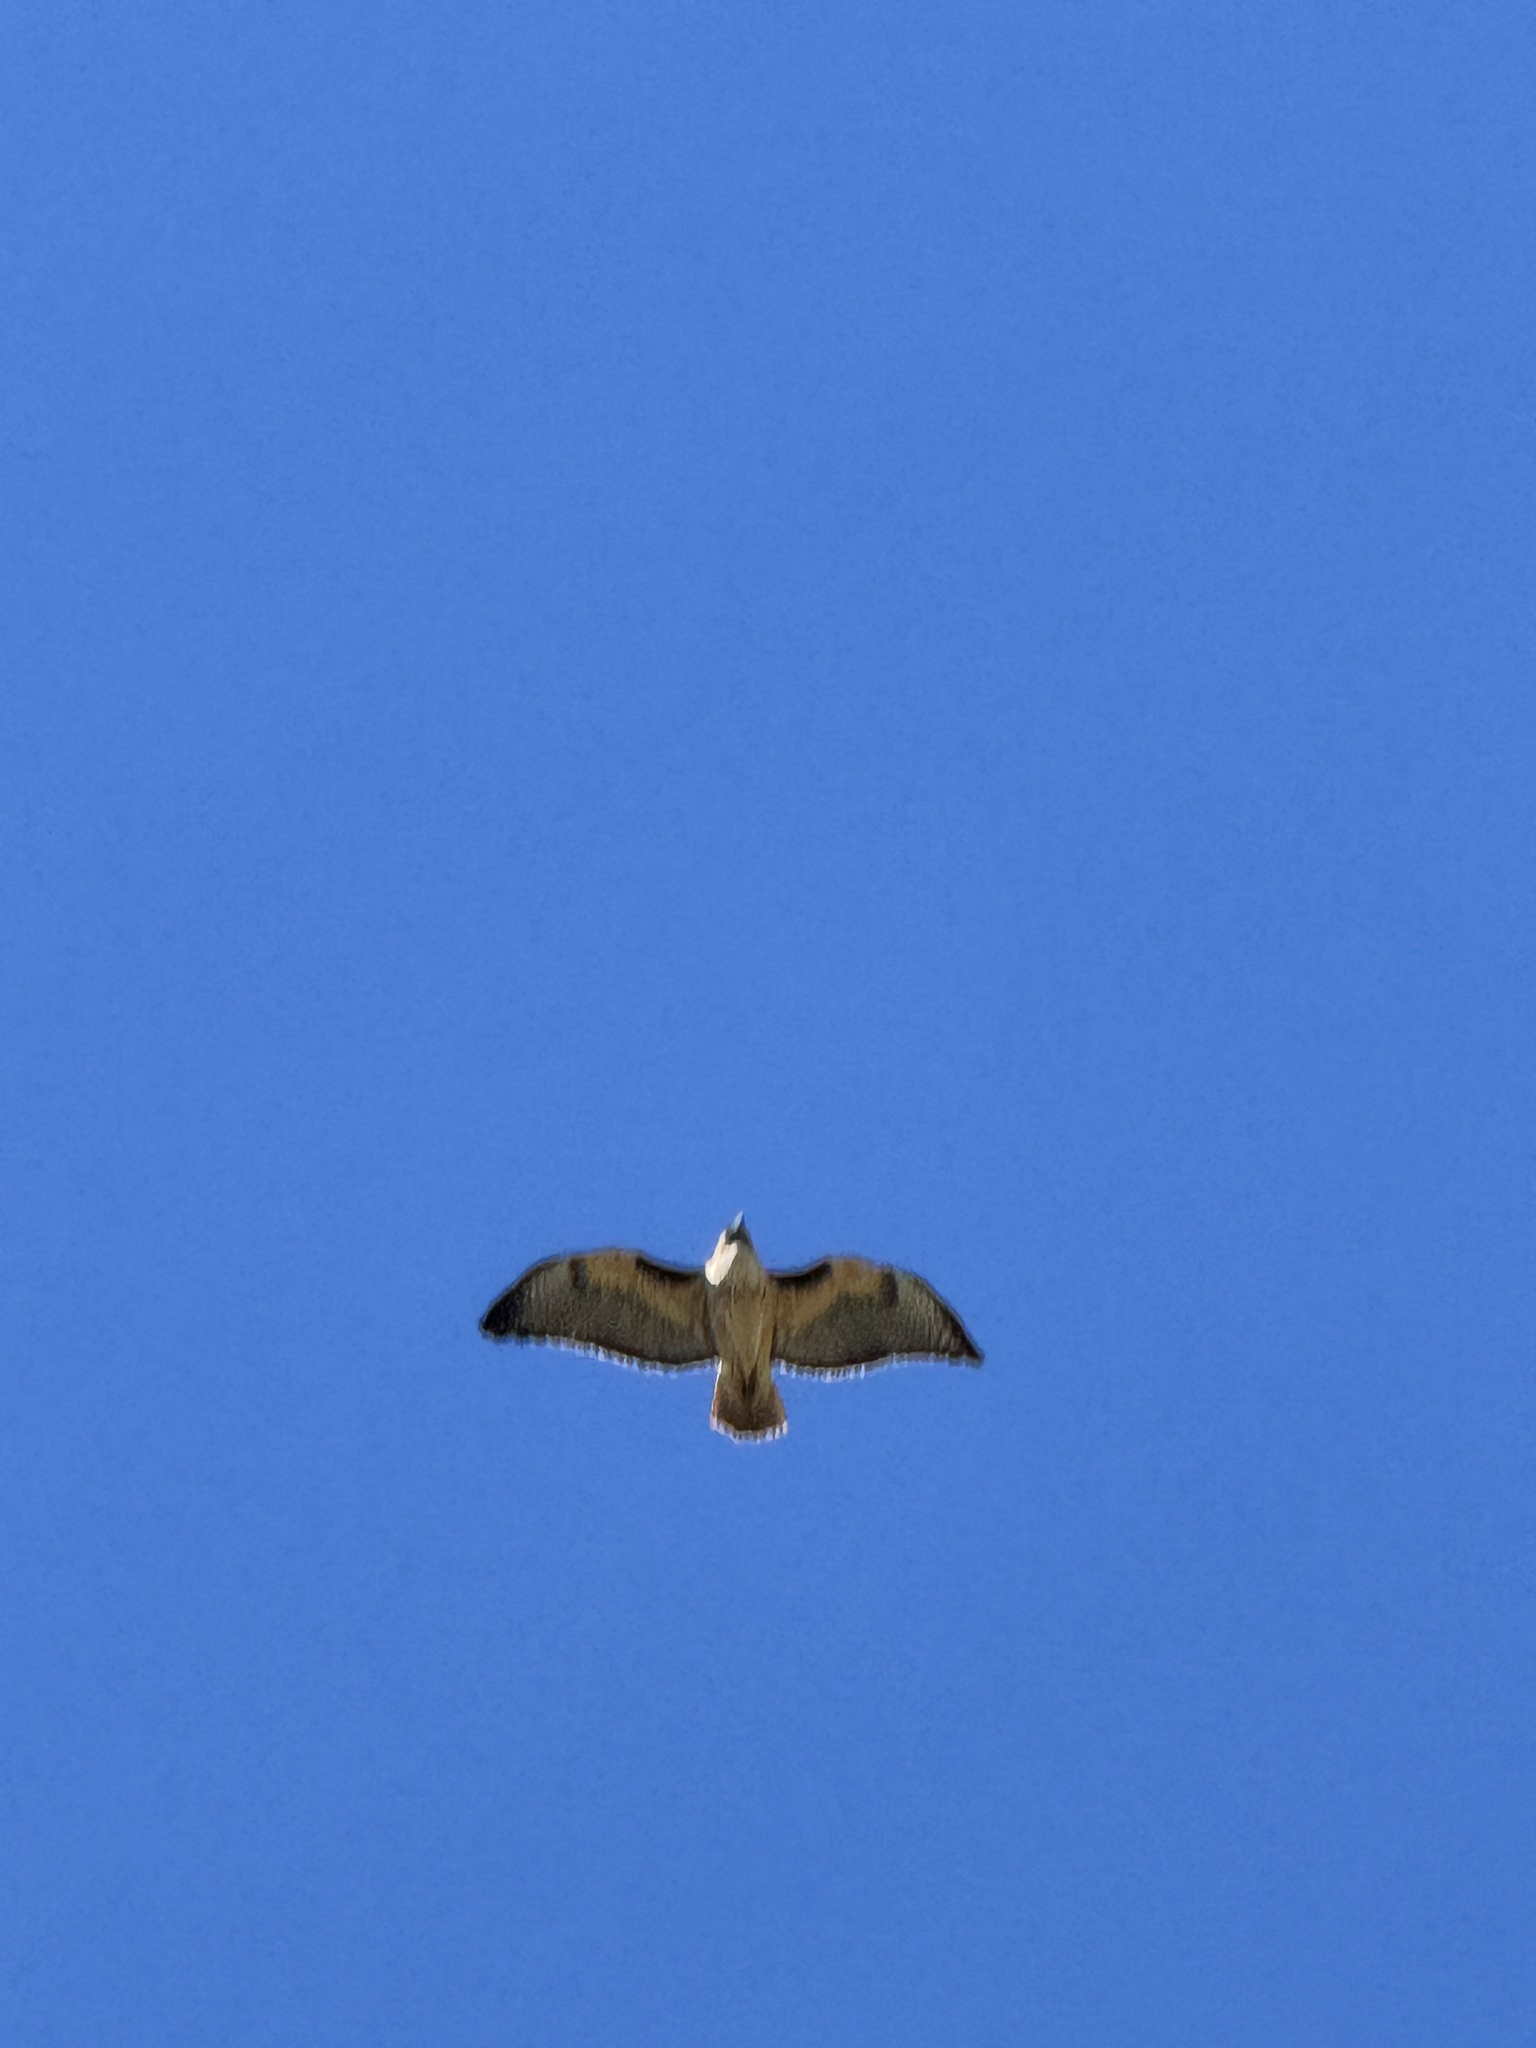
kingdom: Animalia
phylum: Chordata
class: Aves
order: Accipitriformes
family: Accipitridae
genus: Buteo
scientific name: Buteo jamaicensis
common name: Red-tailed hawk
